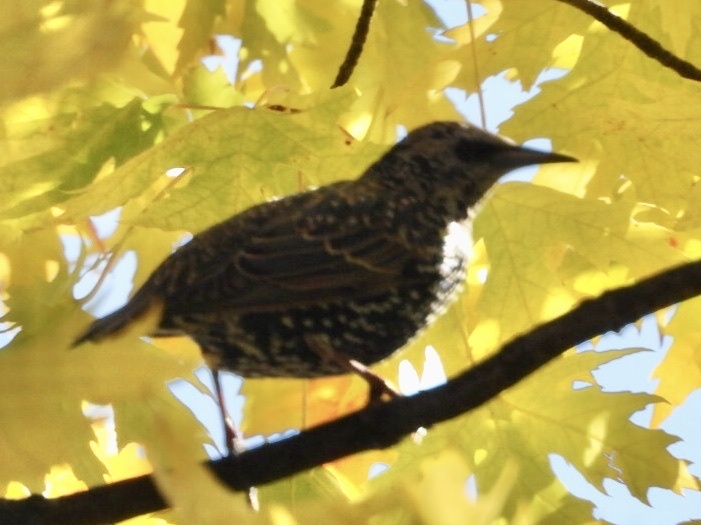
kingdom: Animalia
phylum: Chordata
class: Aves
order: Passeriformes
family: Sturnidae
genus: Sturnus
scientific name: Sturnus vulgaris
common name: Common starling
